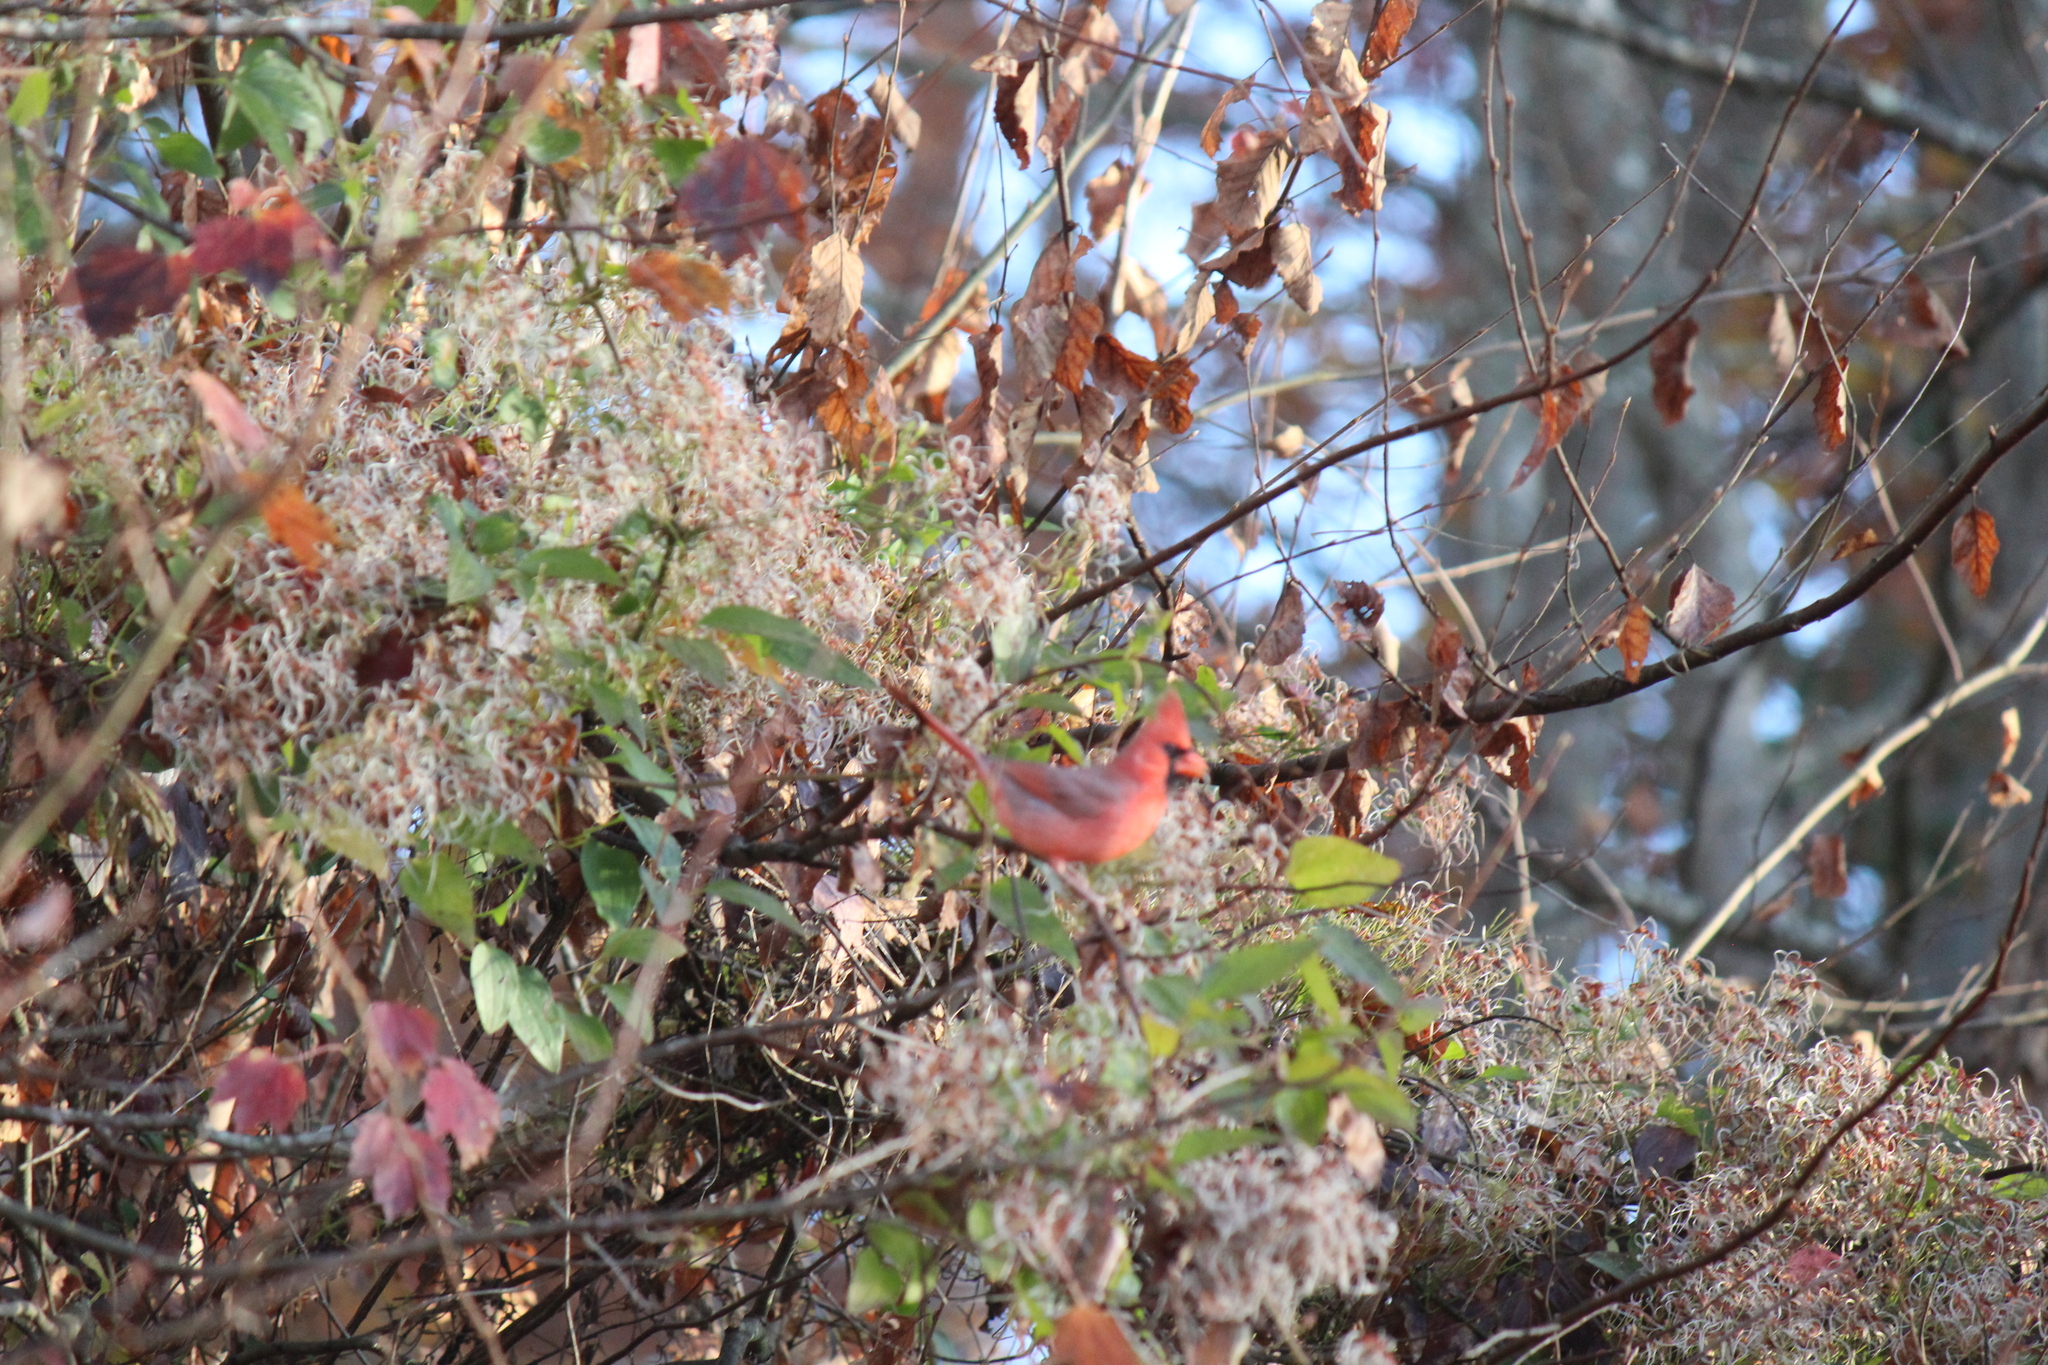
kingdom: Animalia
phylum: Chordata
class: Aves
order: Passeriformes
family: Cardinalidae
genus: Cardinalis
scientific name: Cardinalis cardinalis
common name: Northern cardinal
